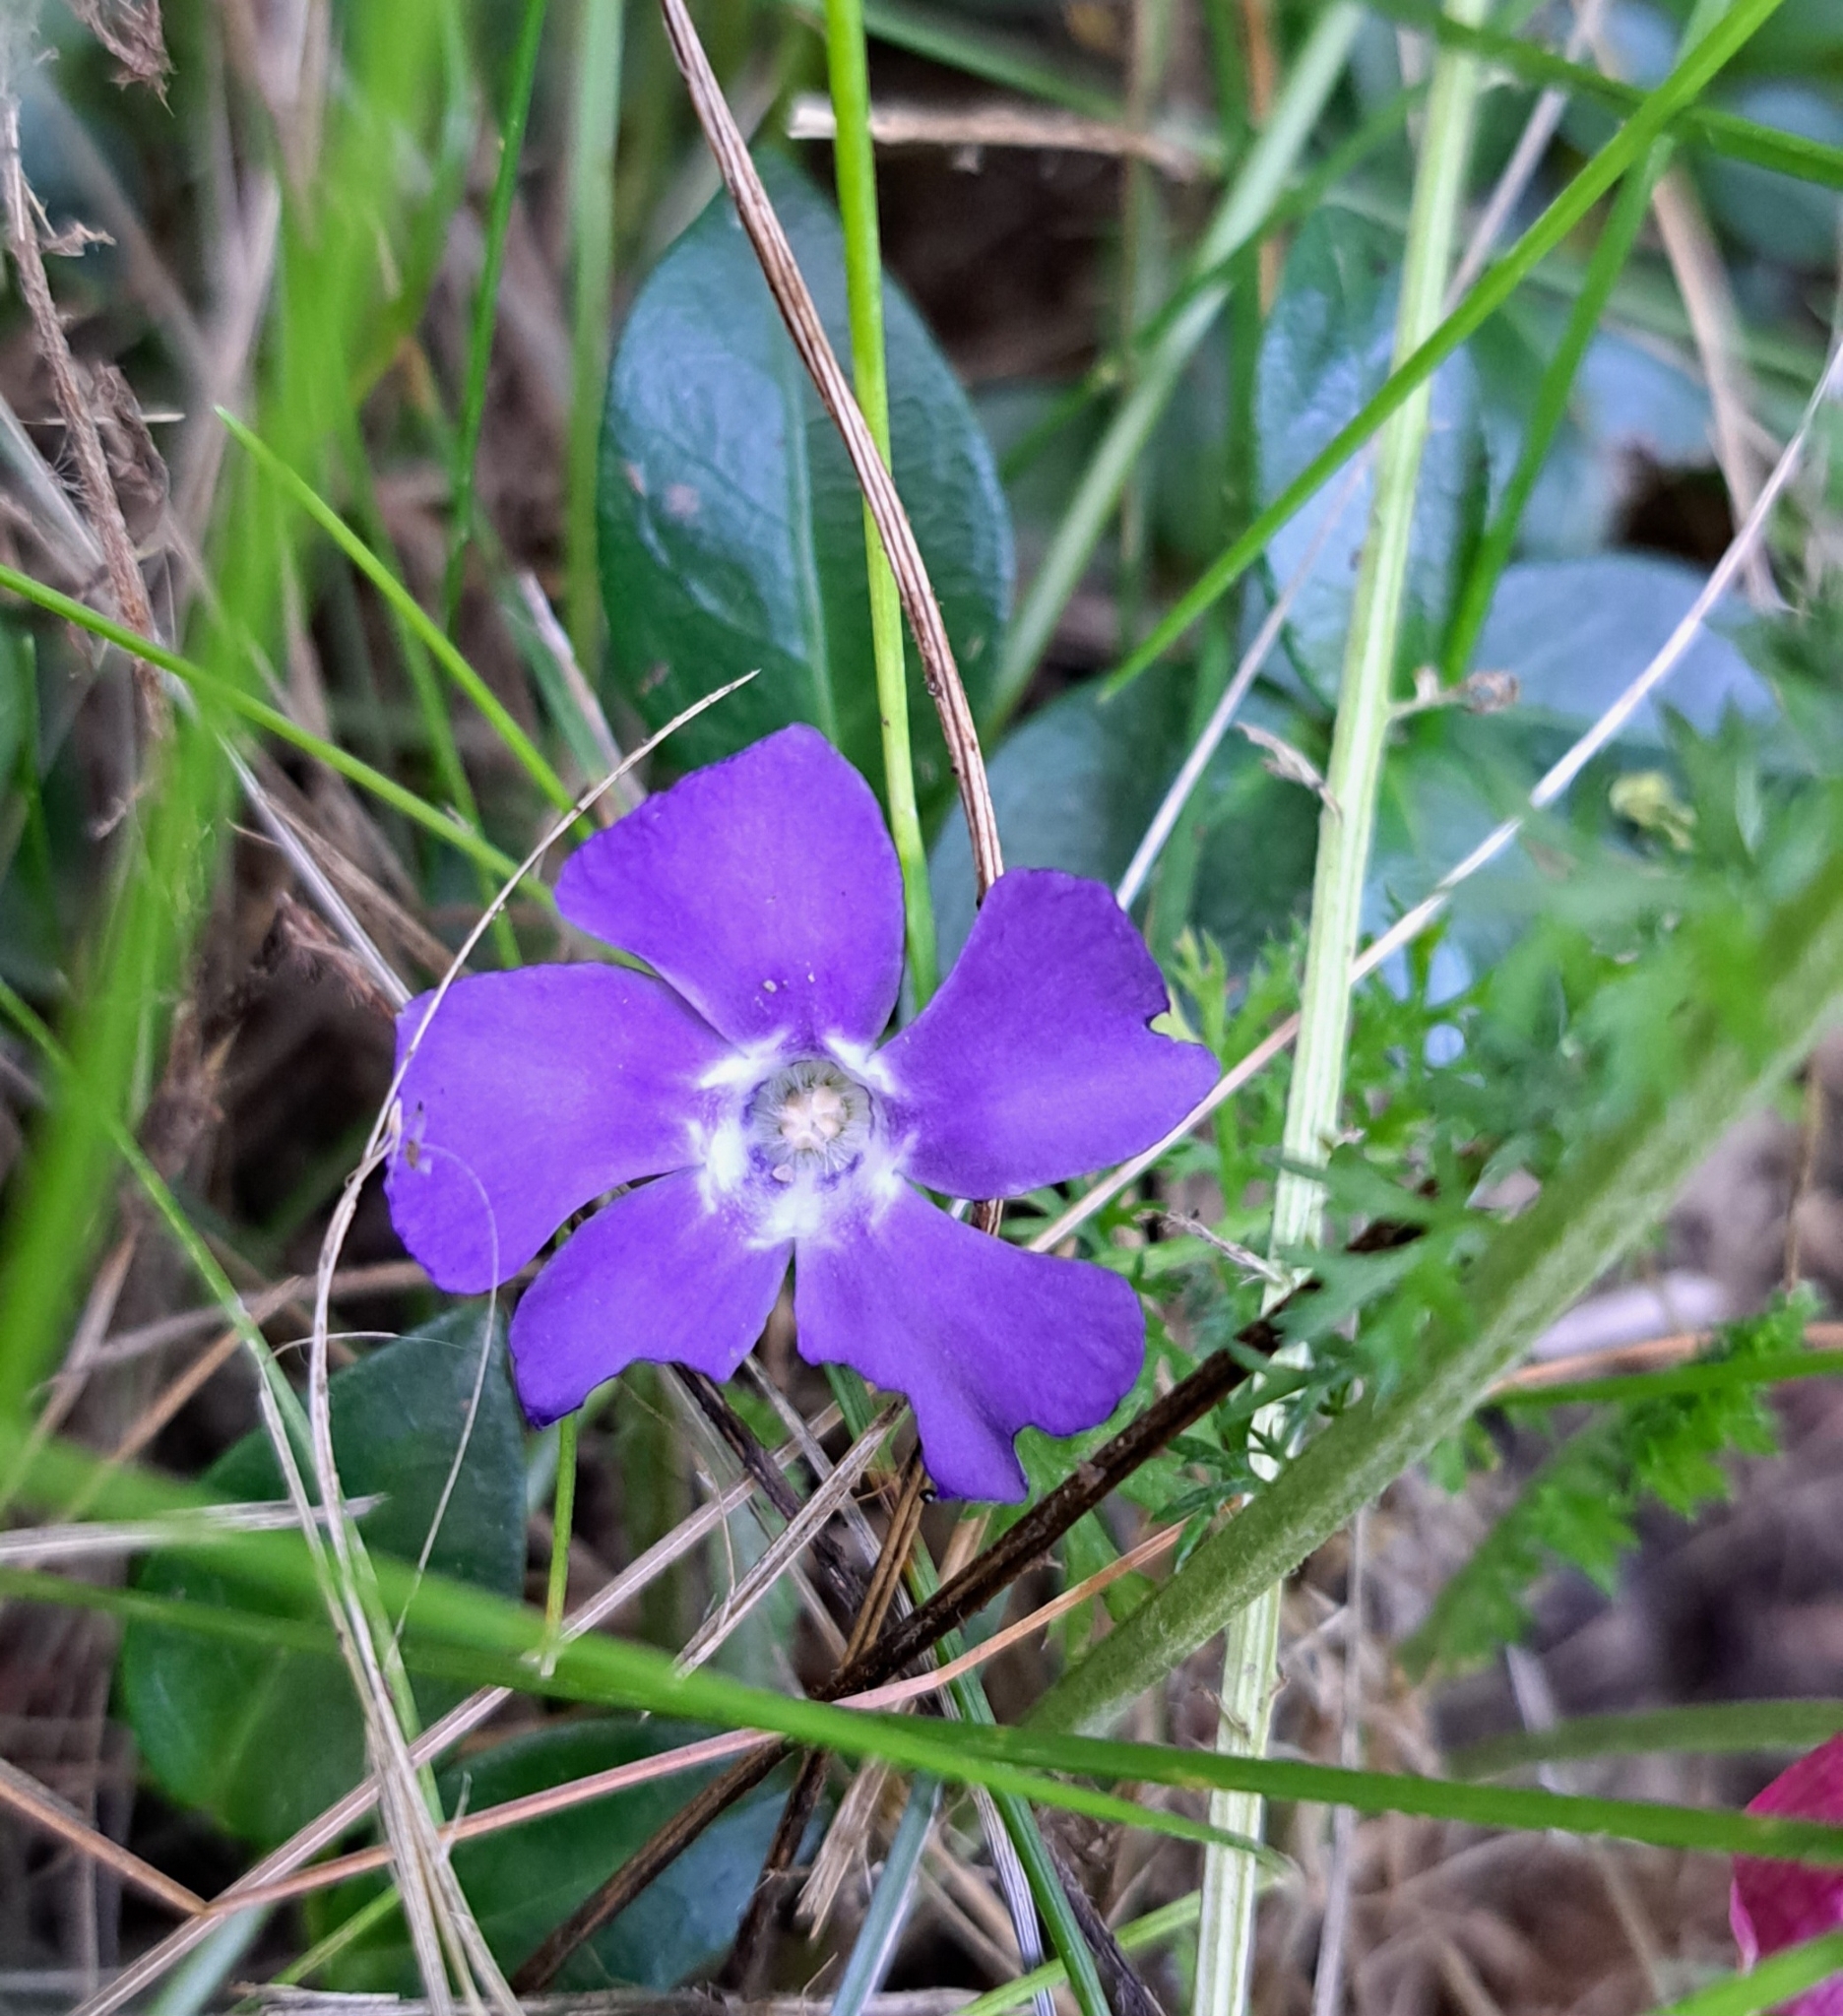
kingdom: Plantae
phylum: Tracheophyta
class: Magnoliopsida
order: Gentianales
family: Apocynaceae
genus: Vinca
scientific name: Vinca minor
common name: Lesser periwinkle
